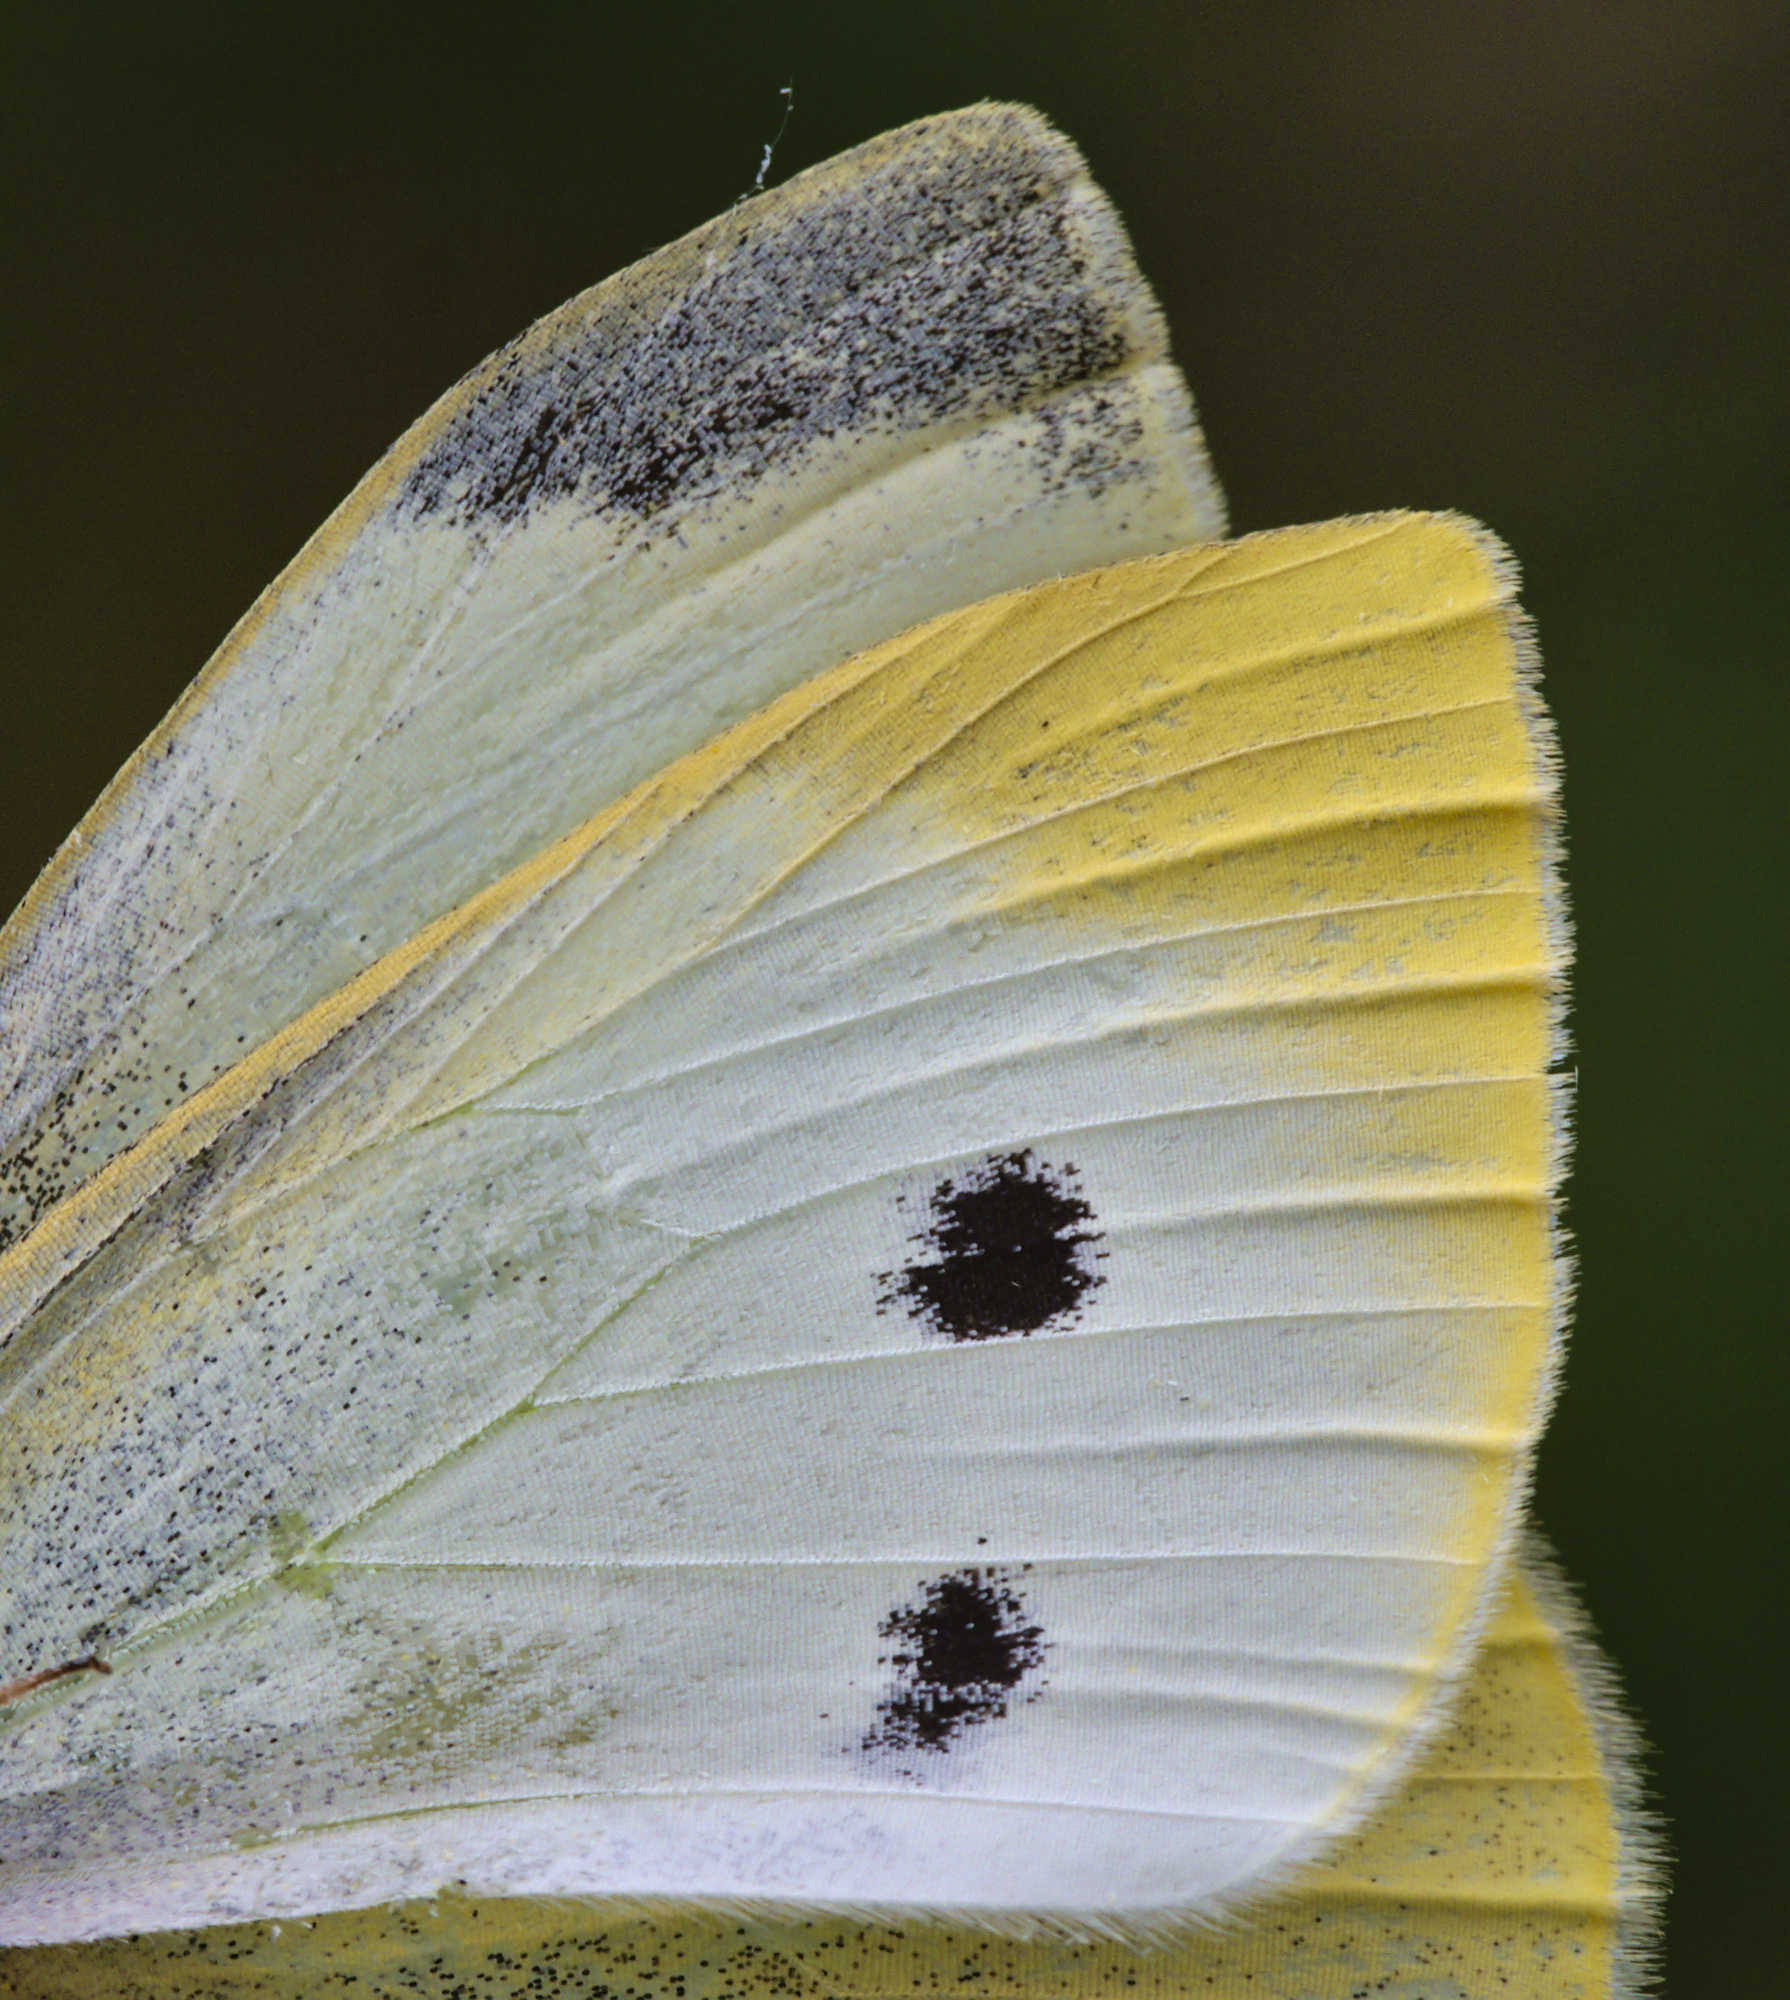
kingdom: Animalia
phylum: Arthropoda
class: Insecta
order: Lepidoptera
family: Pieridae
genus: Pieris
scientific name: Pieris rapae
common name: Small white
